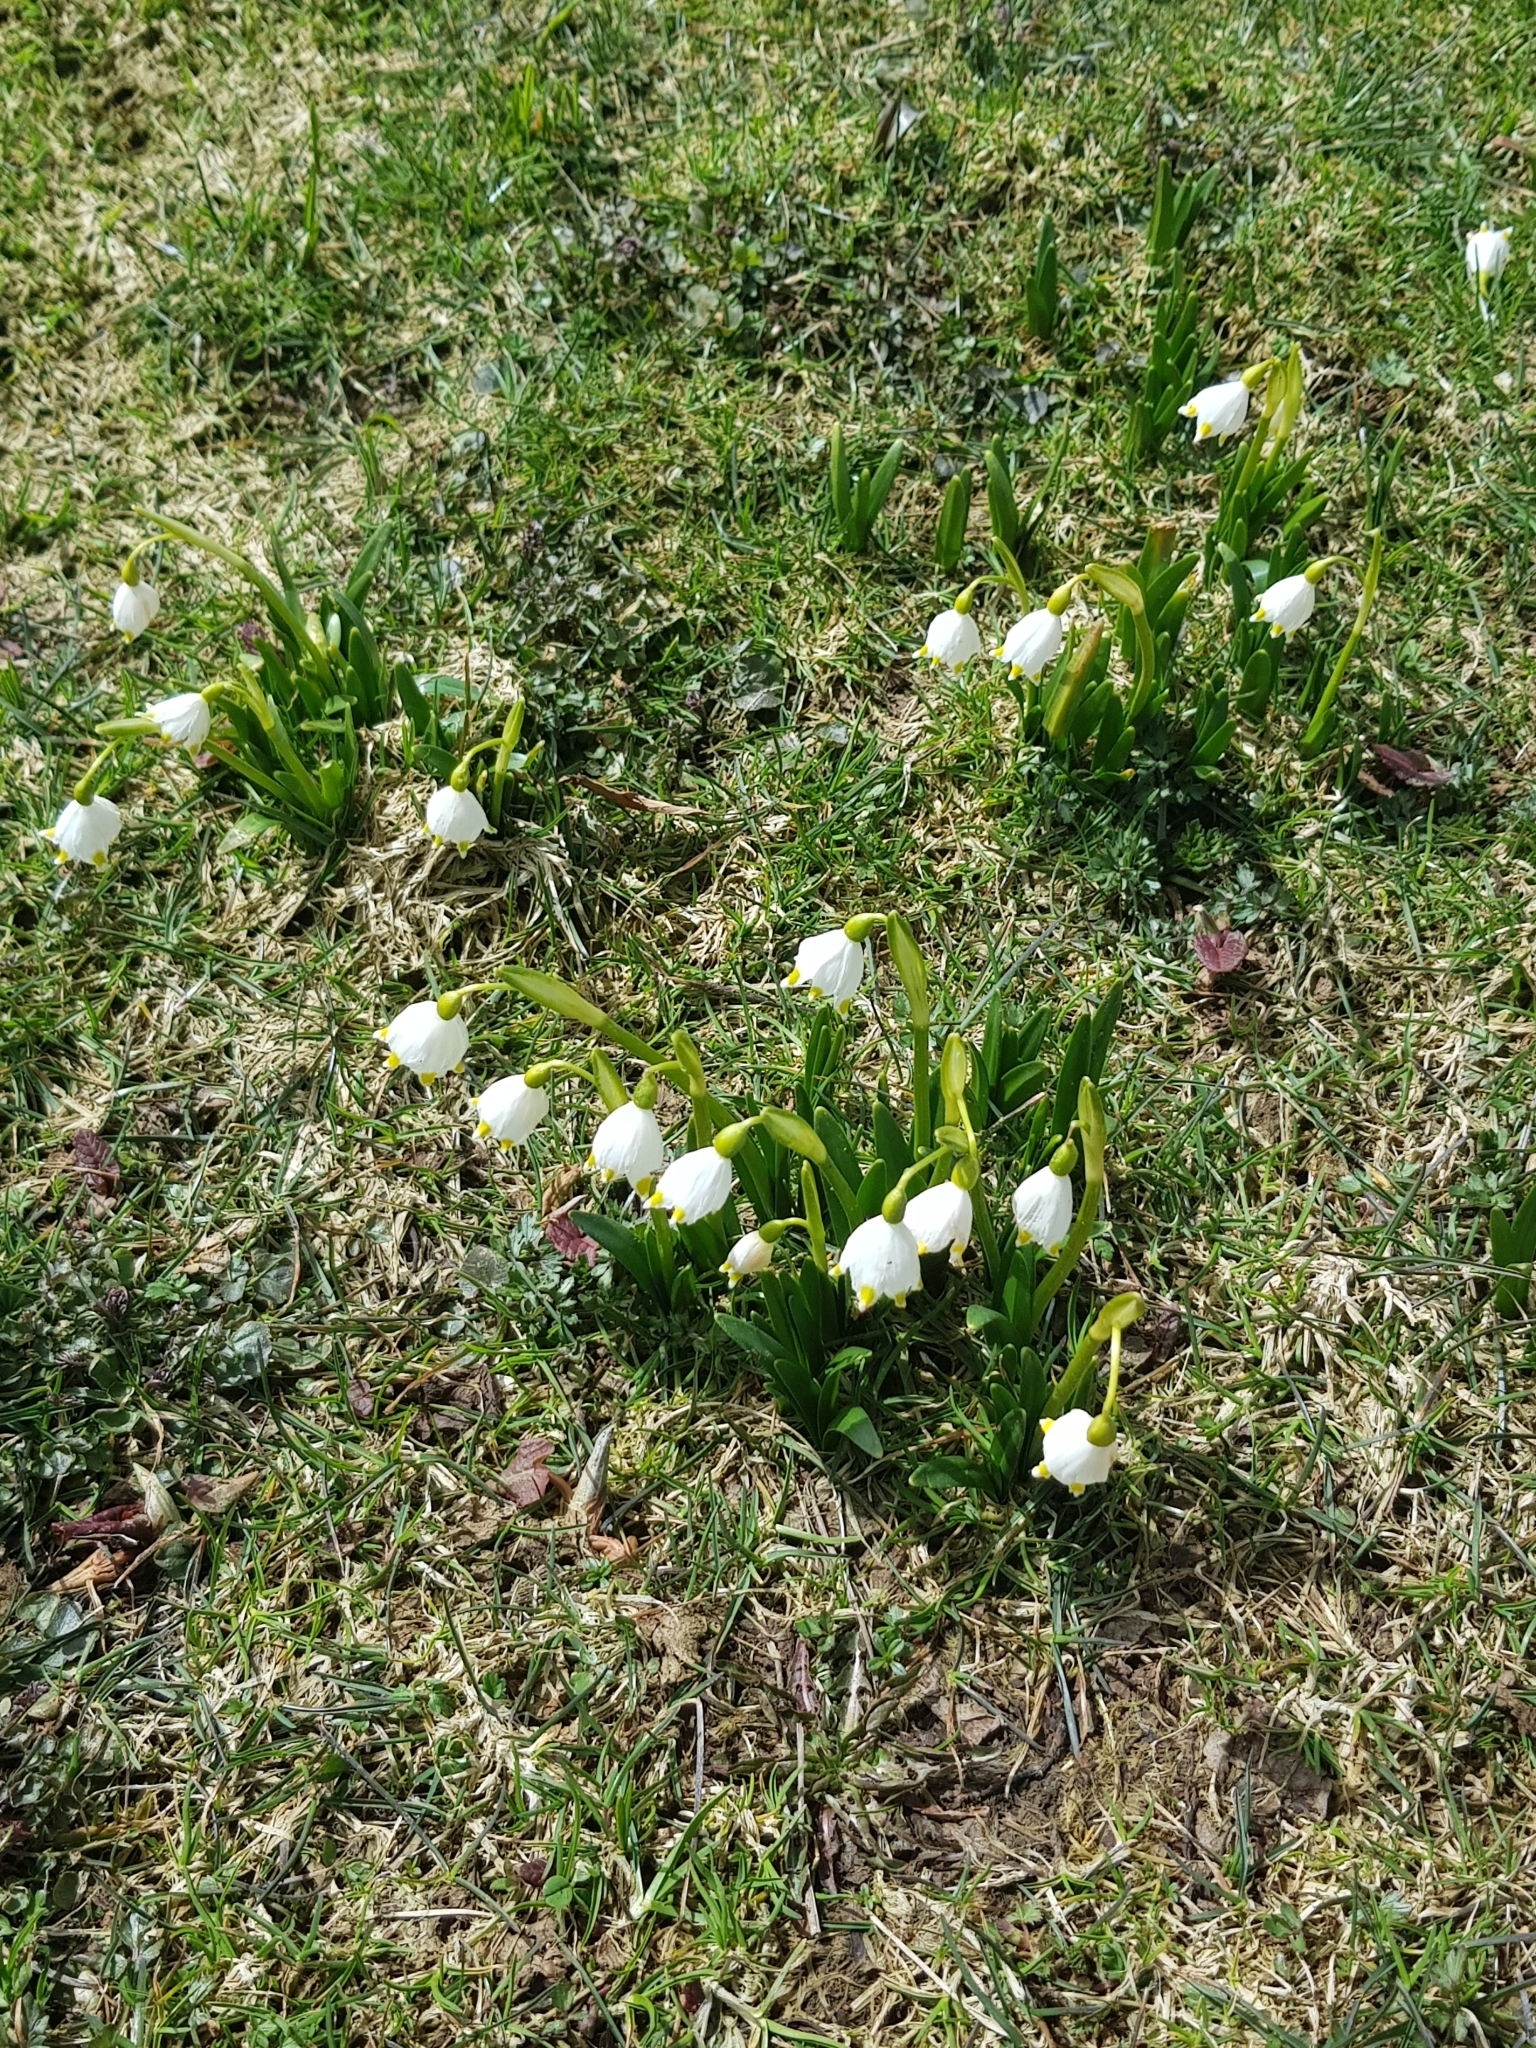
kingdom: Plantae
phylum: Tracheophyta
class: Liliopsida
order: Asparagales
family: Amaryllidaceae
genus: Leucojum
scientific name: Leucojum vernum
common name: Spring snowflake
